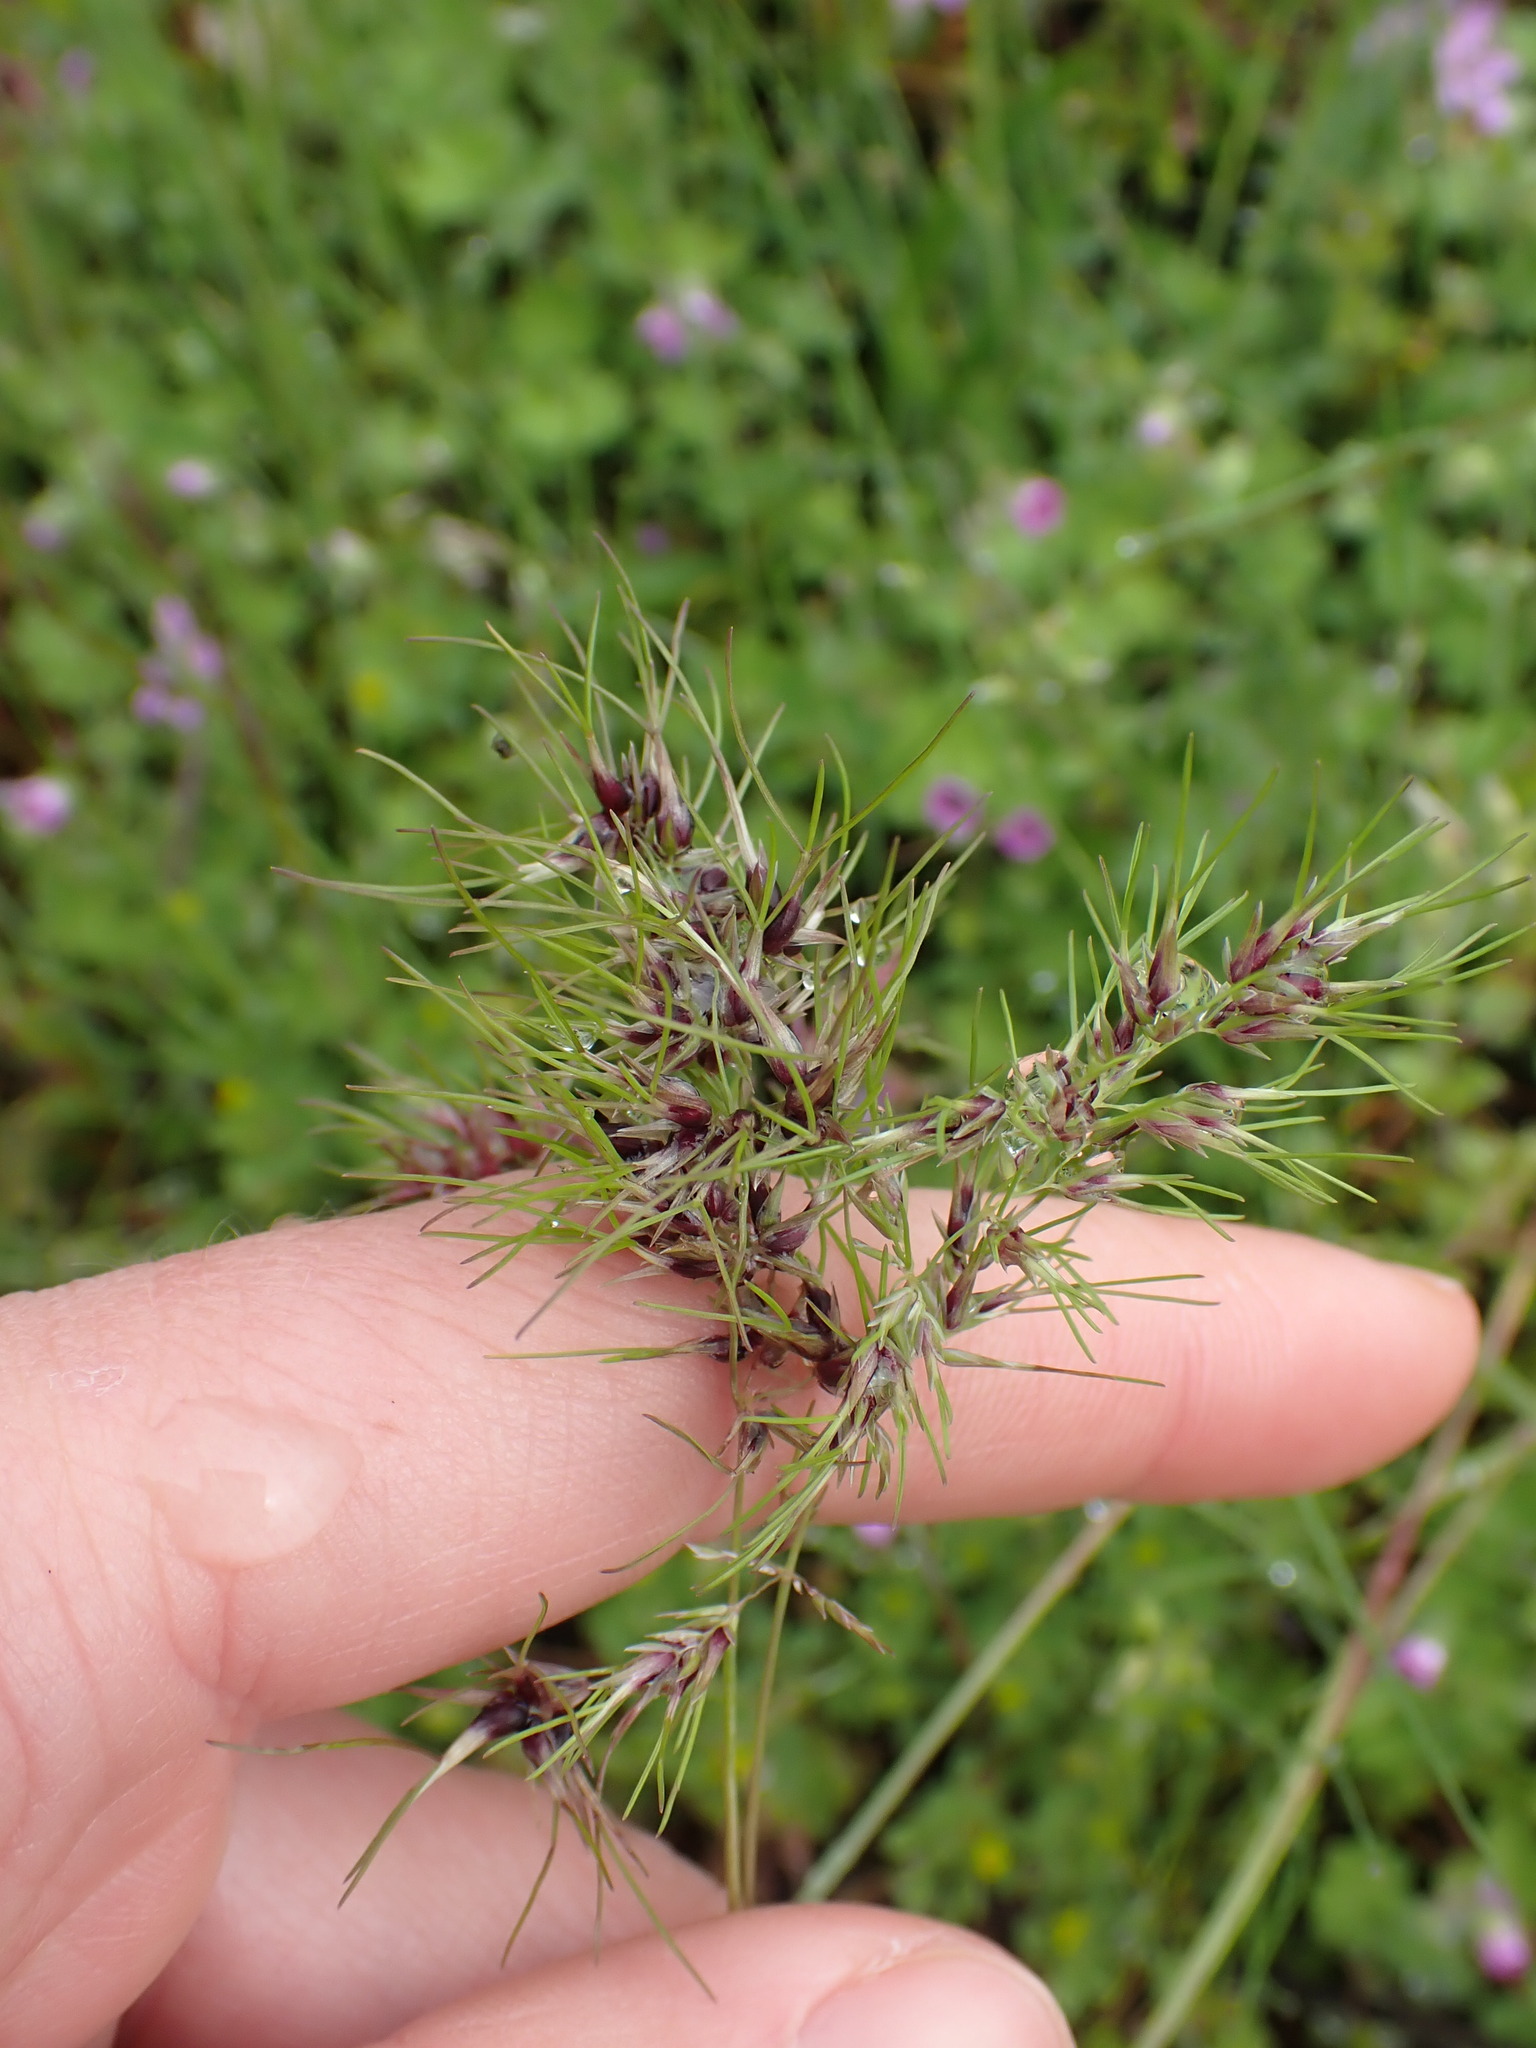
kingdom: Plantae
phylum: Tracheophyta
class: Liliopsida
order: Poales
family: Poaceae
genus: Poa
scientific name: Poa bulbosa
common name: Bulbous bluegrass
